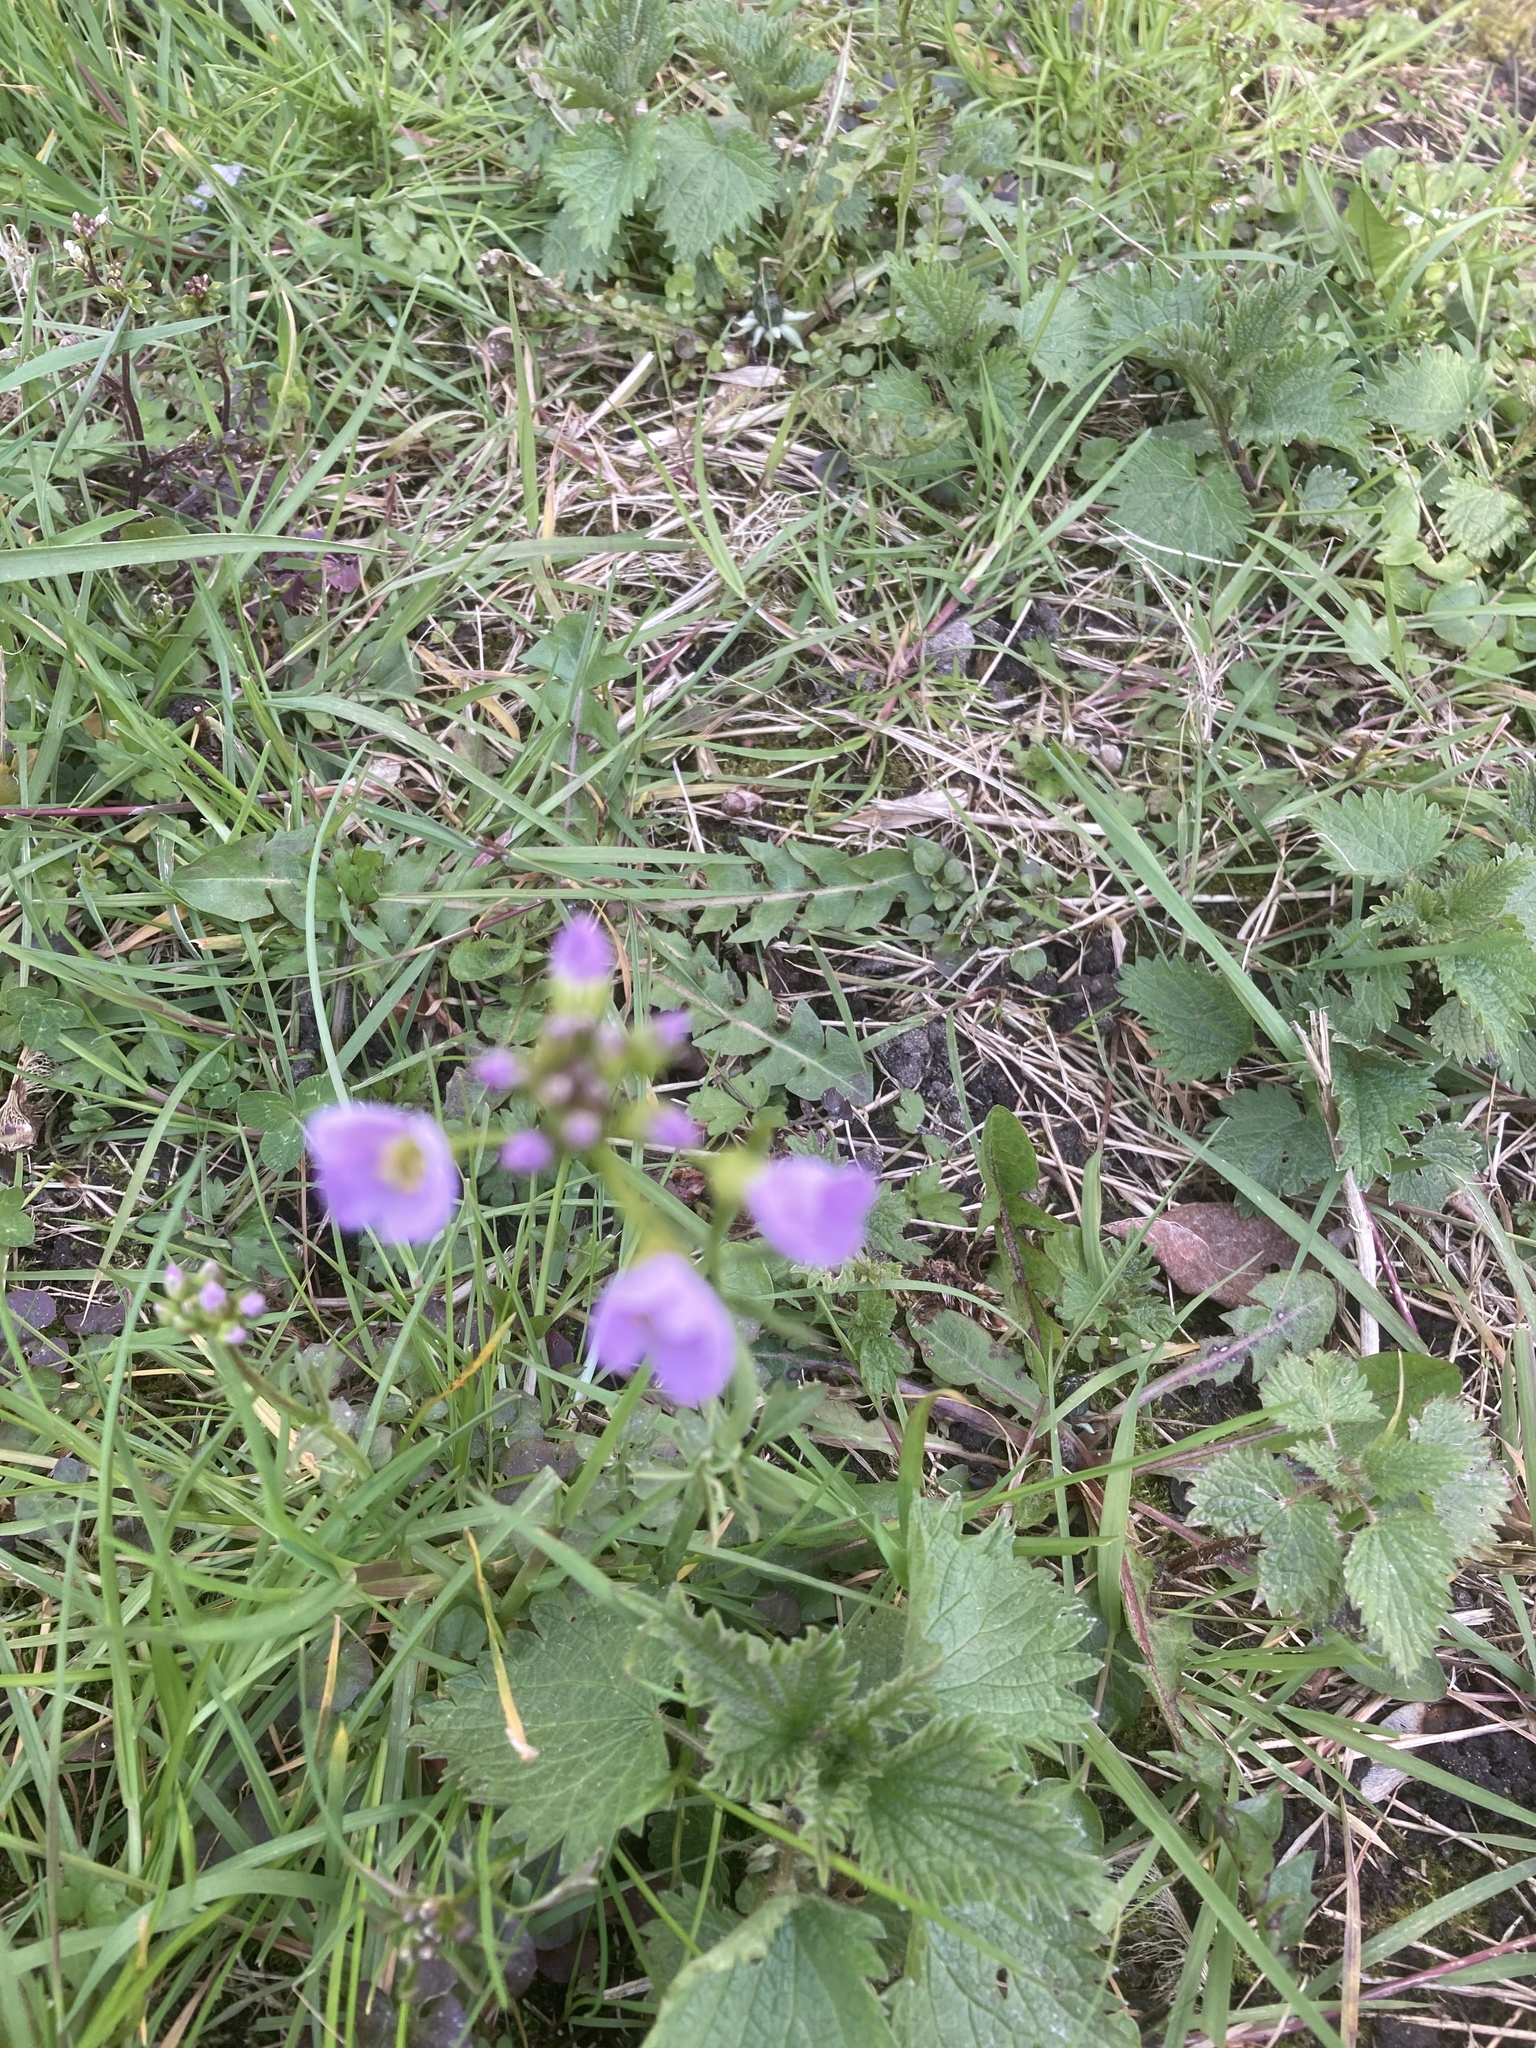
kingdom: Plantae
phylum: Tracheophyta
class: Magnoliopsida
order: Brassicales
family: Brassicaceae
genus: Cardamine
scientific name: Cardamine pratensis
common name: Cuckoo flower
